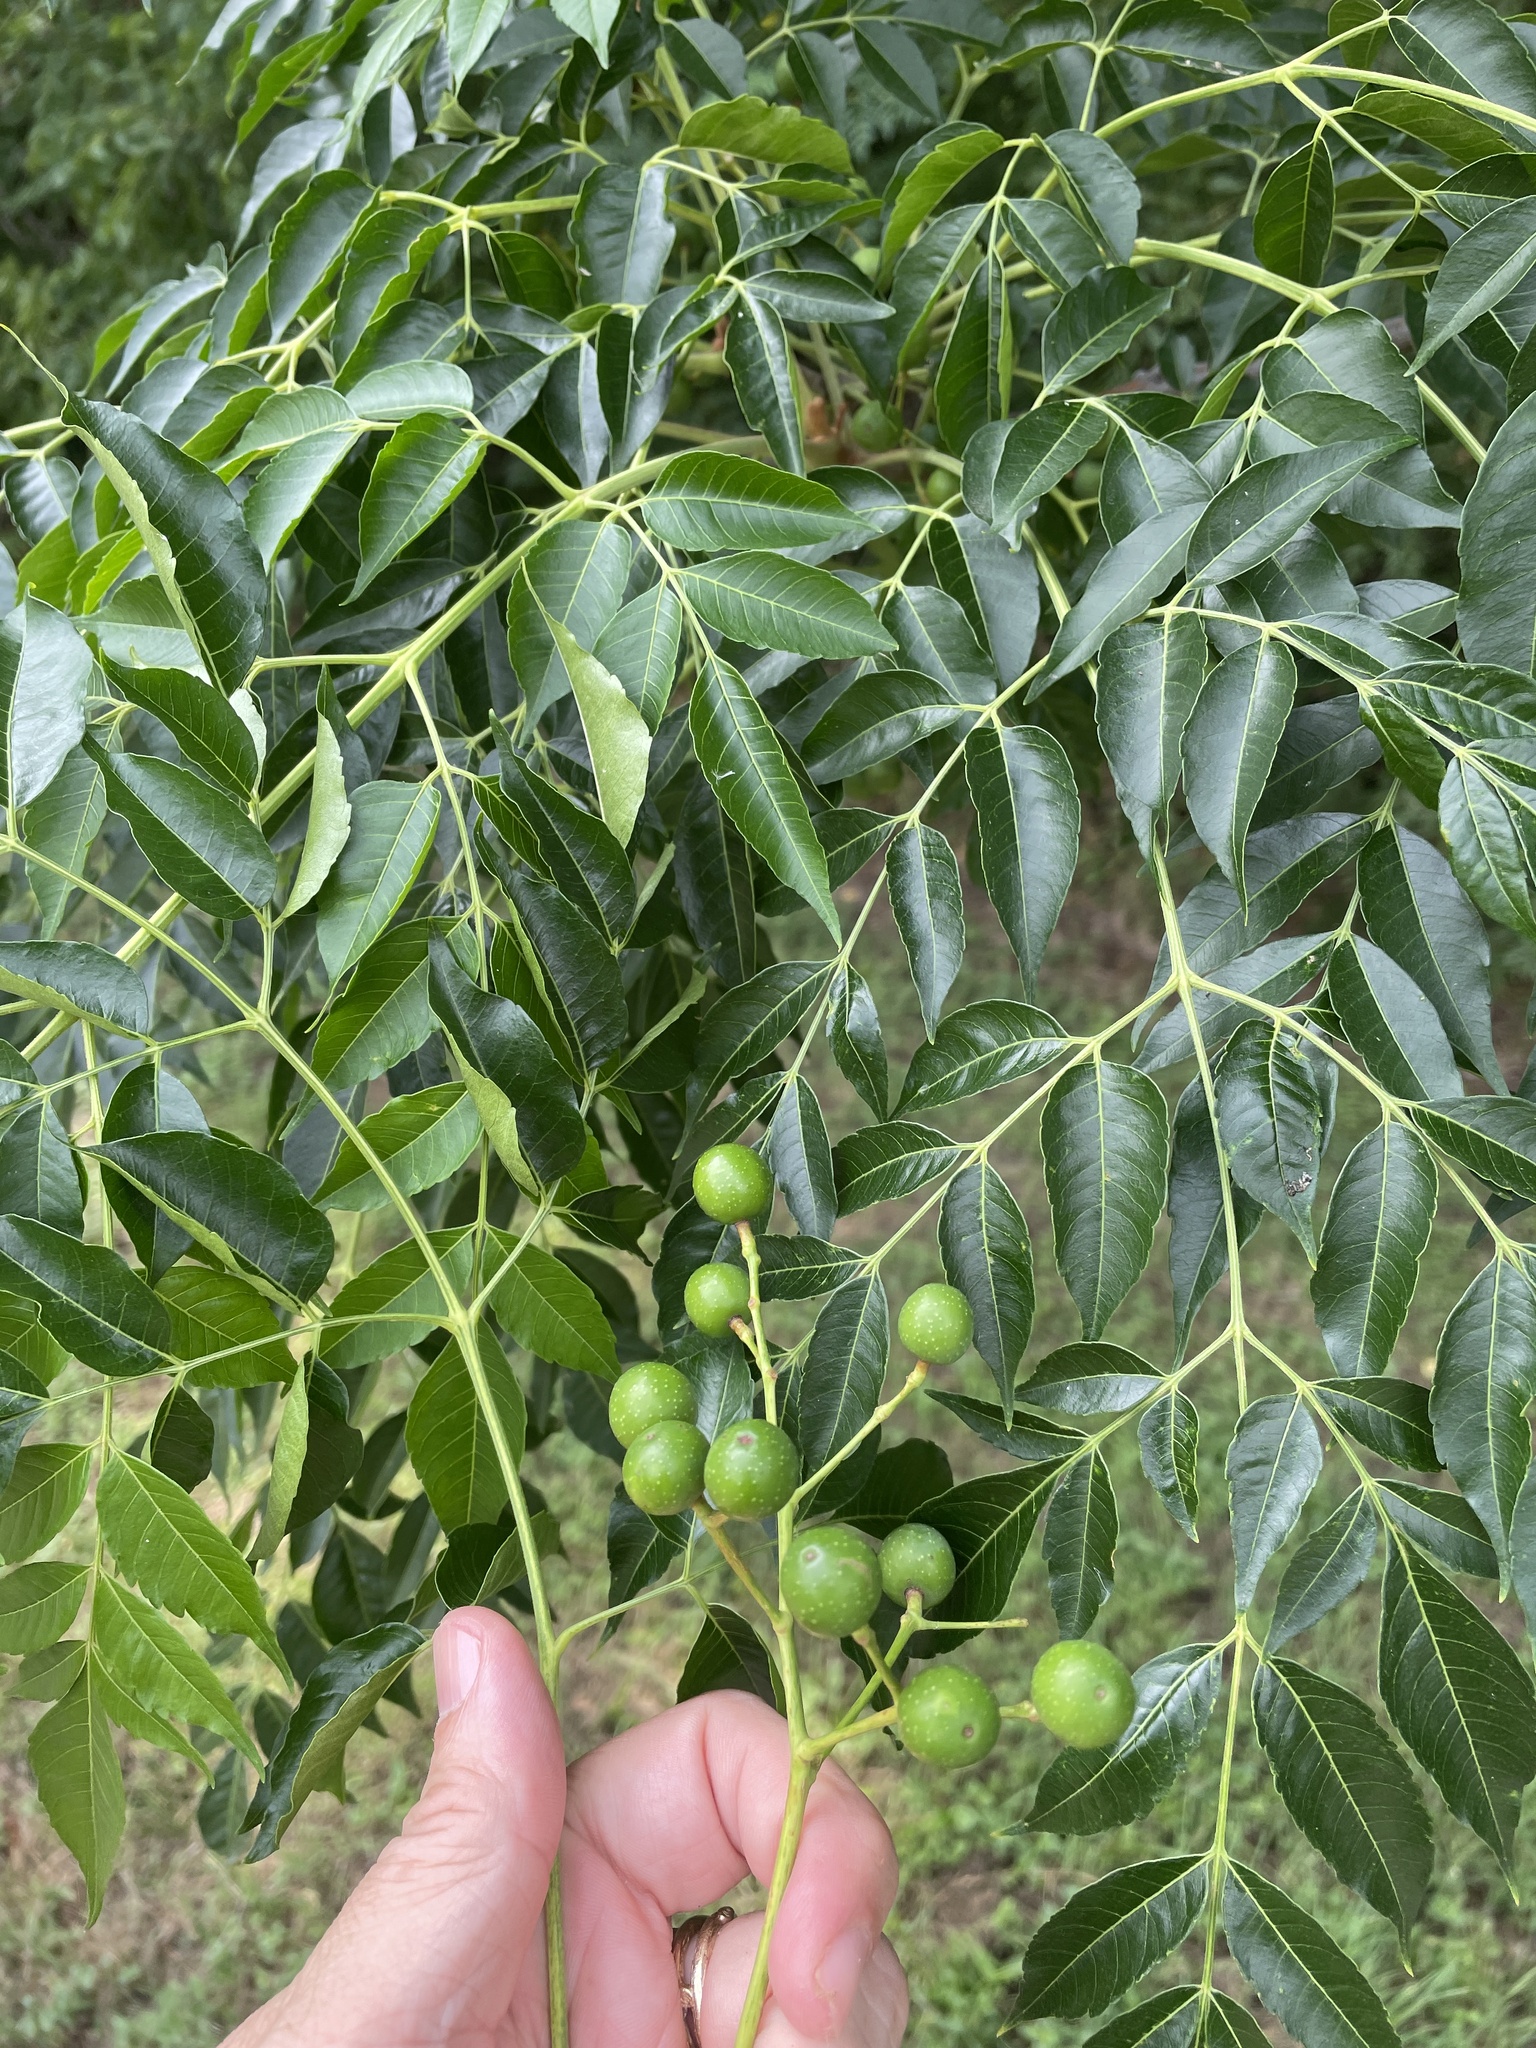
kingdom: Plantae
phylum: Tracheophyta
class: Magnoliopsida
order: Sapindales
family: Meliaceae
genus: Melia
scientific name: Melia azedarach
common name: Chinaberrytree
